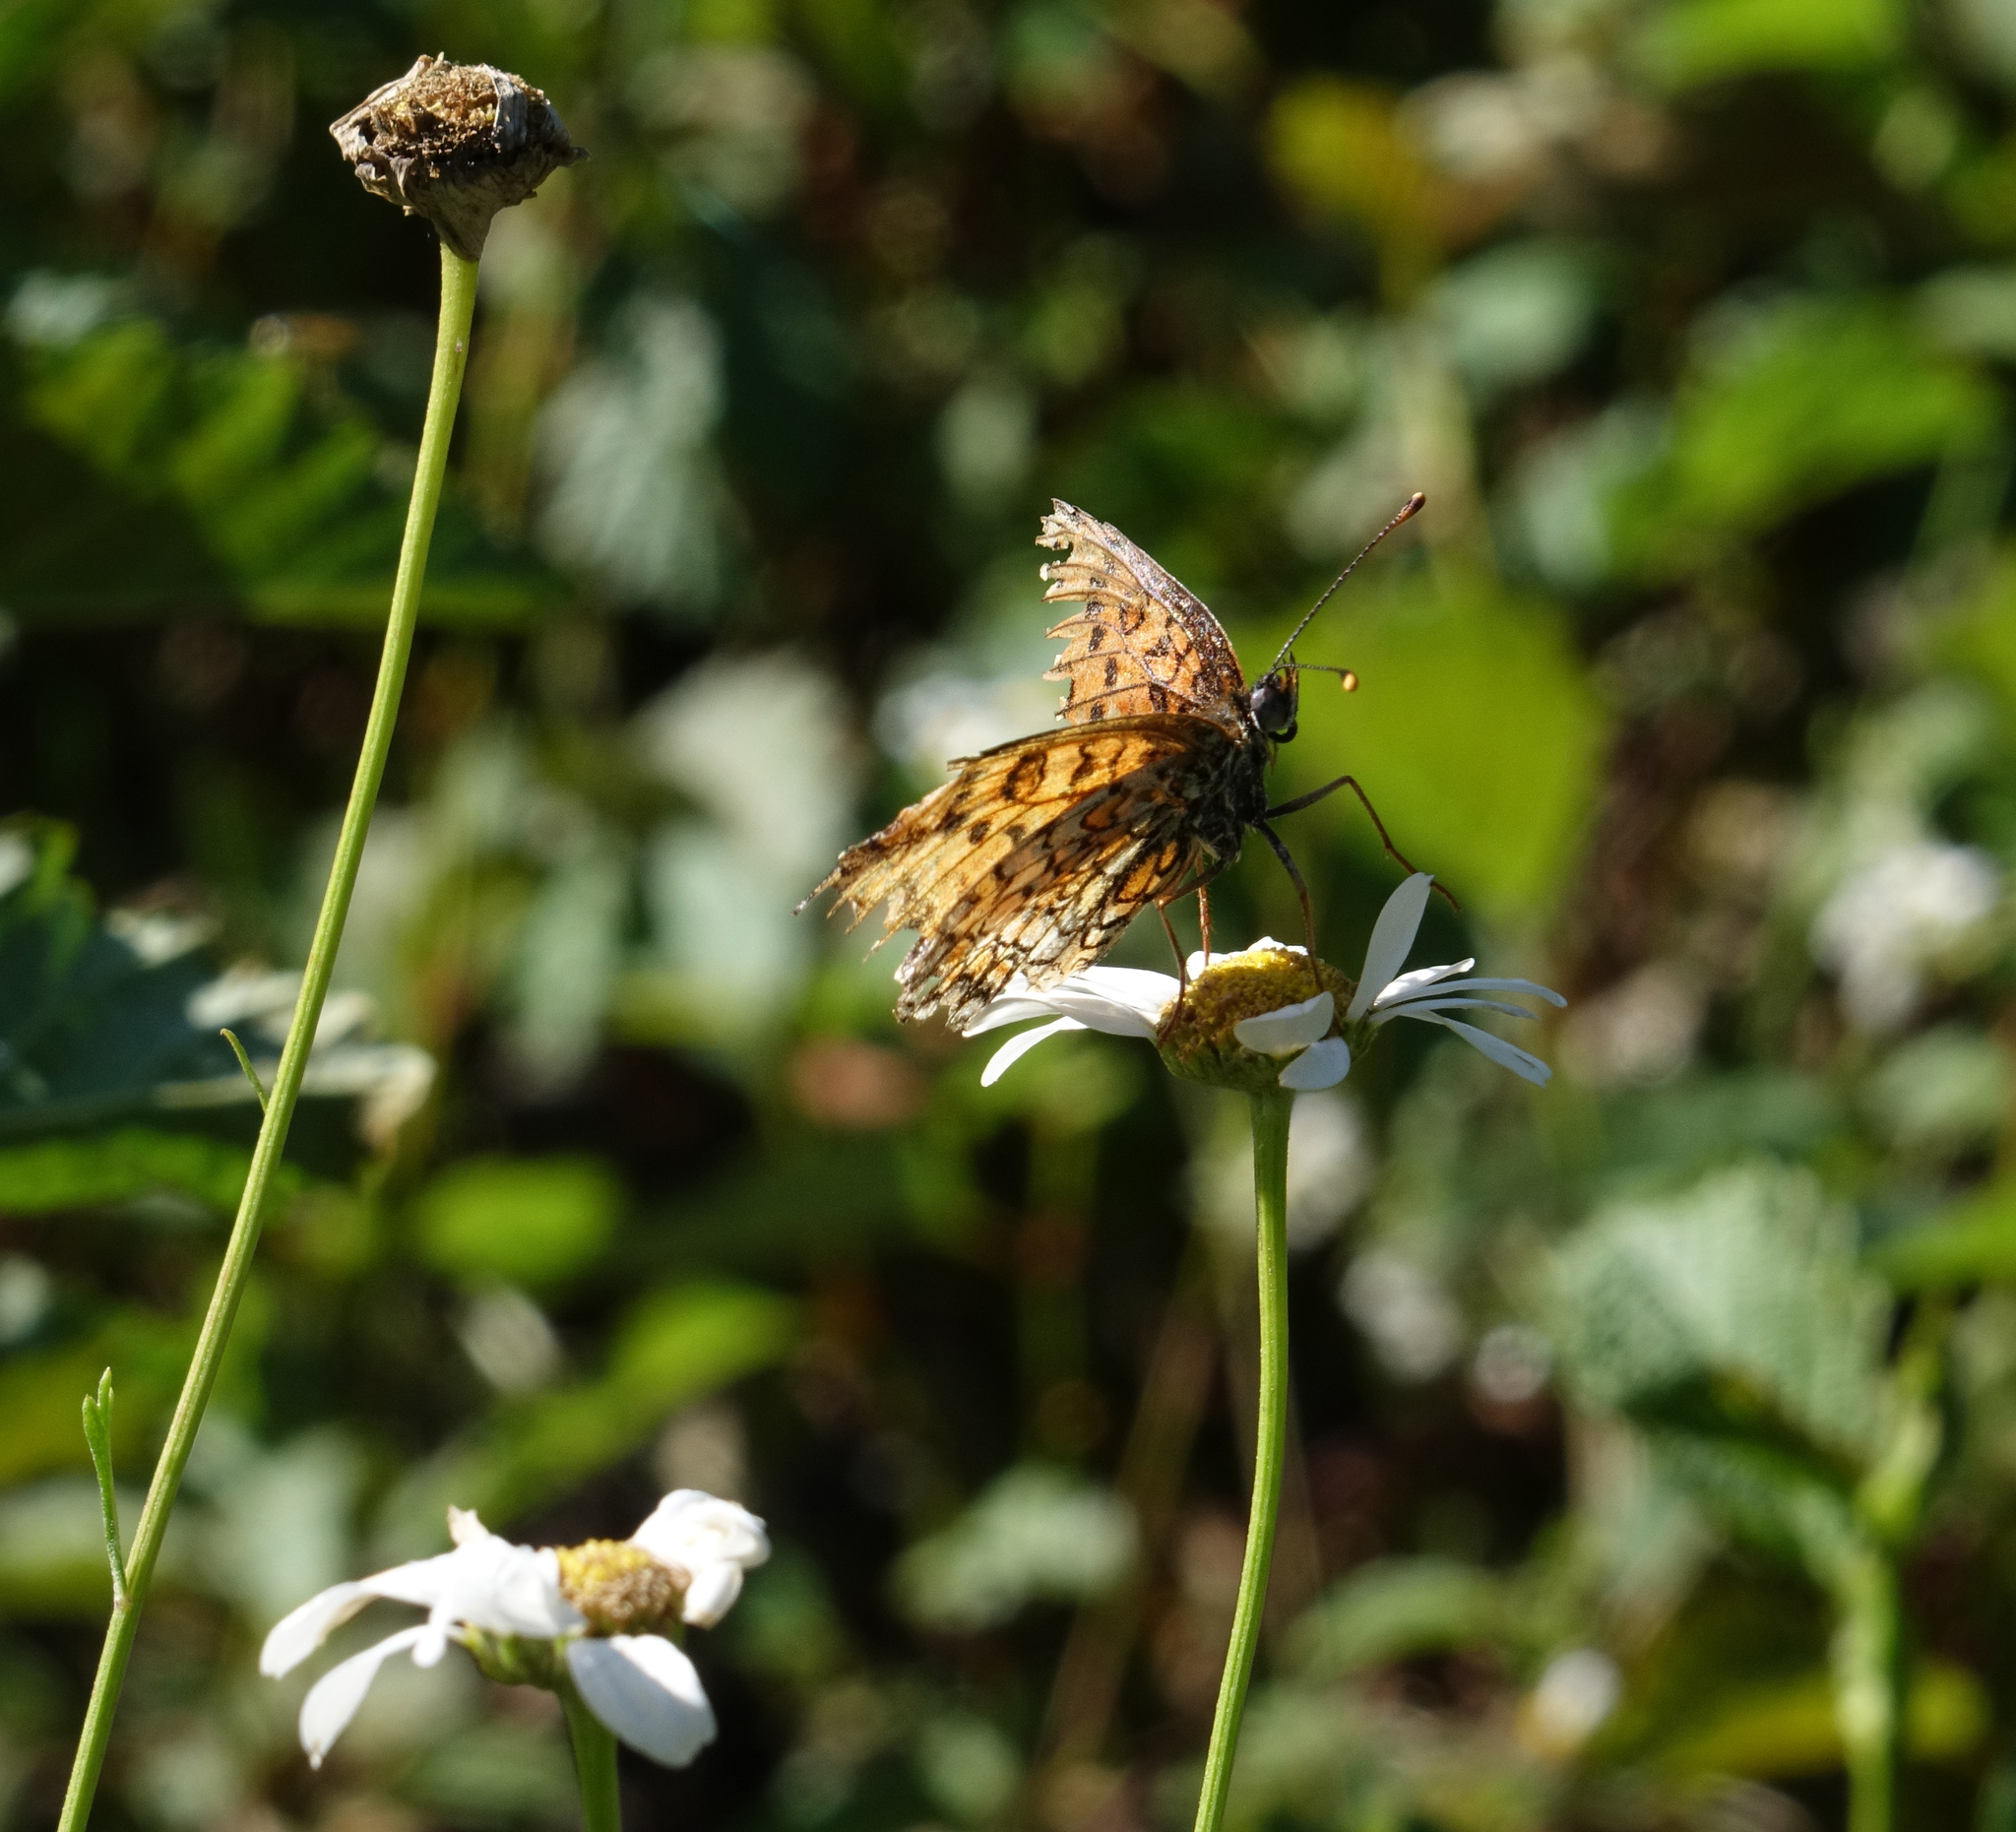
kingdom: Animalia
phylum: Arthropoda
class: Insecta
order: Lepidoptera
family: Nymphalidae
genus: Melitaea
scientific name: Melitaea phoebe
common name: Knapweed fritillary
